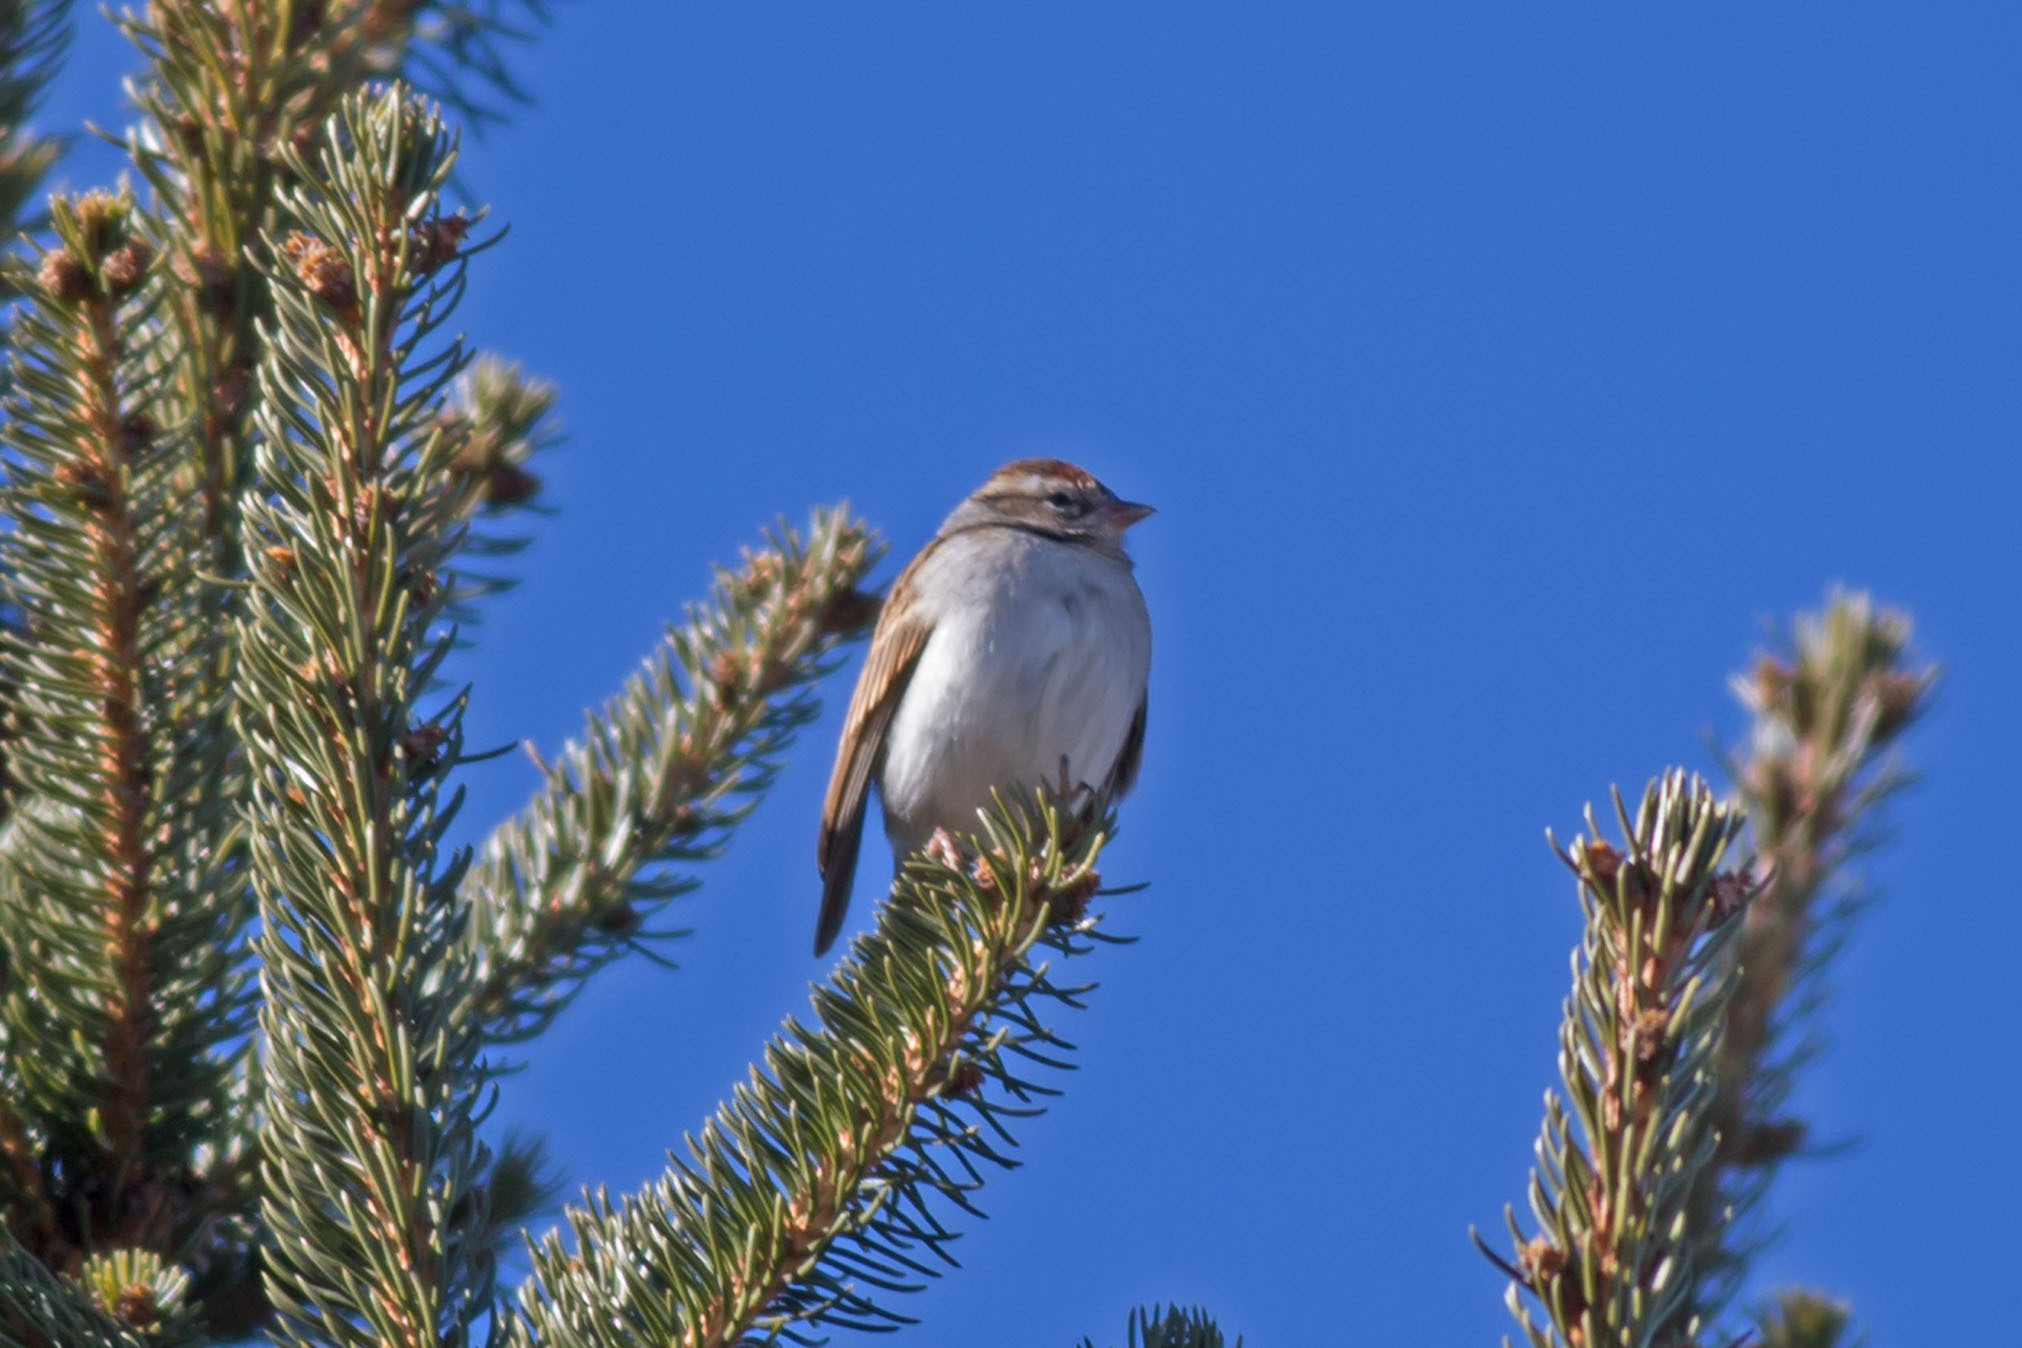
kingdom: Animalia
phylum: Chordata
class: Aves
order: Passeriformes
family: Passerellidae
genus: Spizella
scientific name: Spizella passerina
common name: Chipping sparrow
